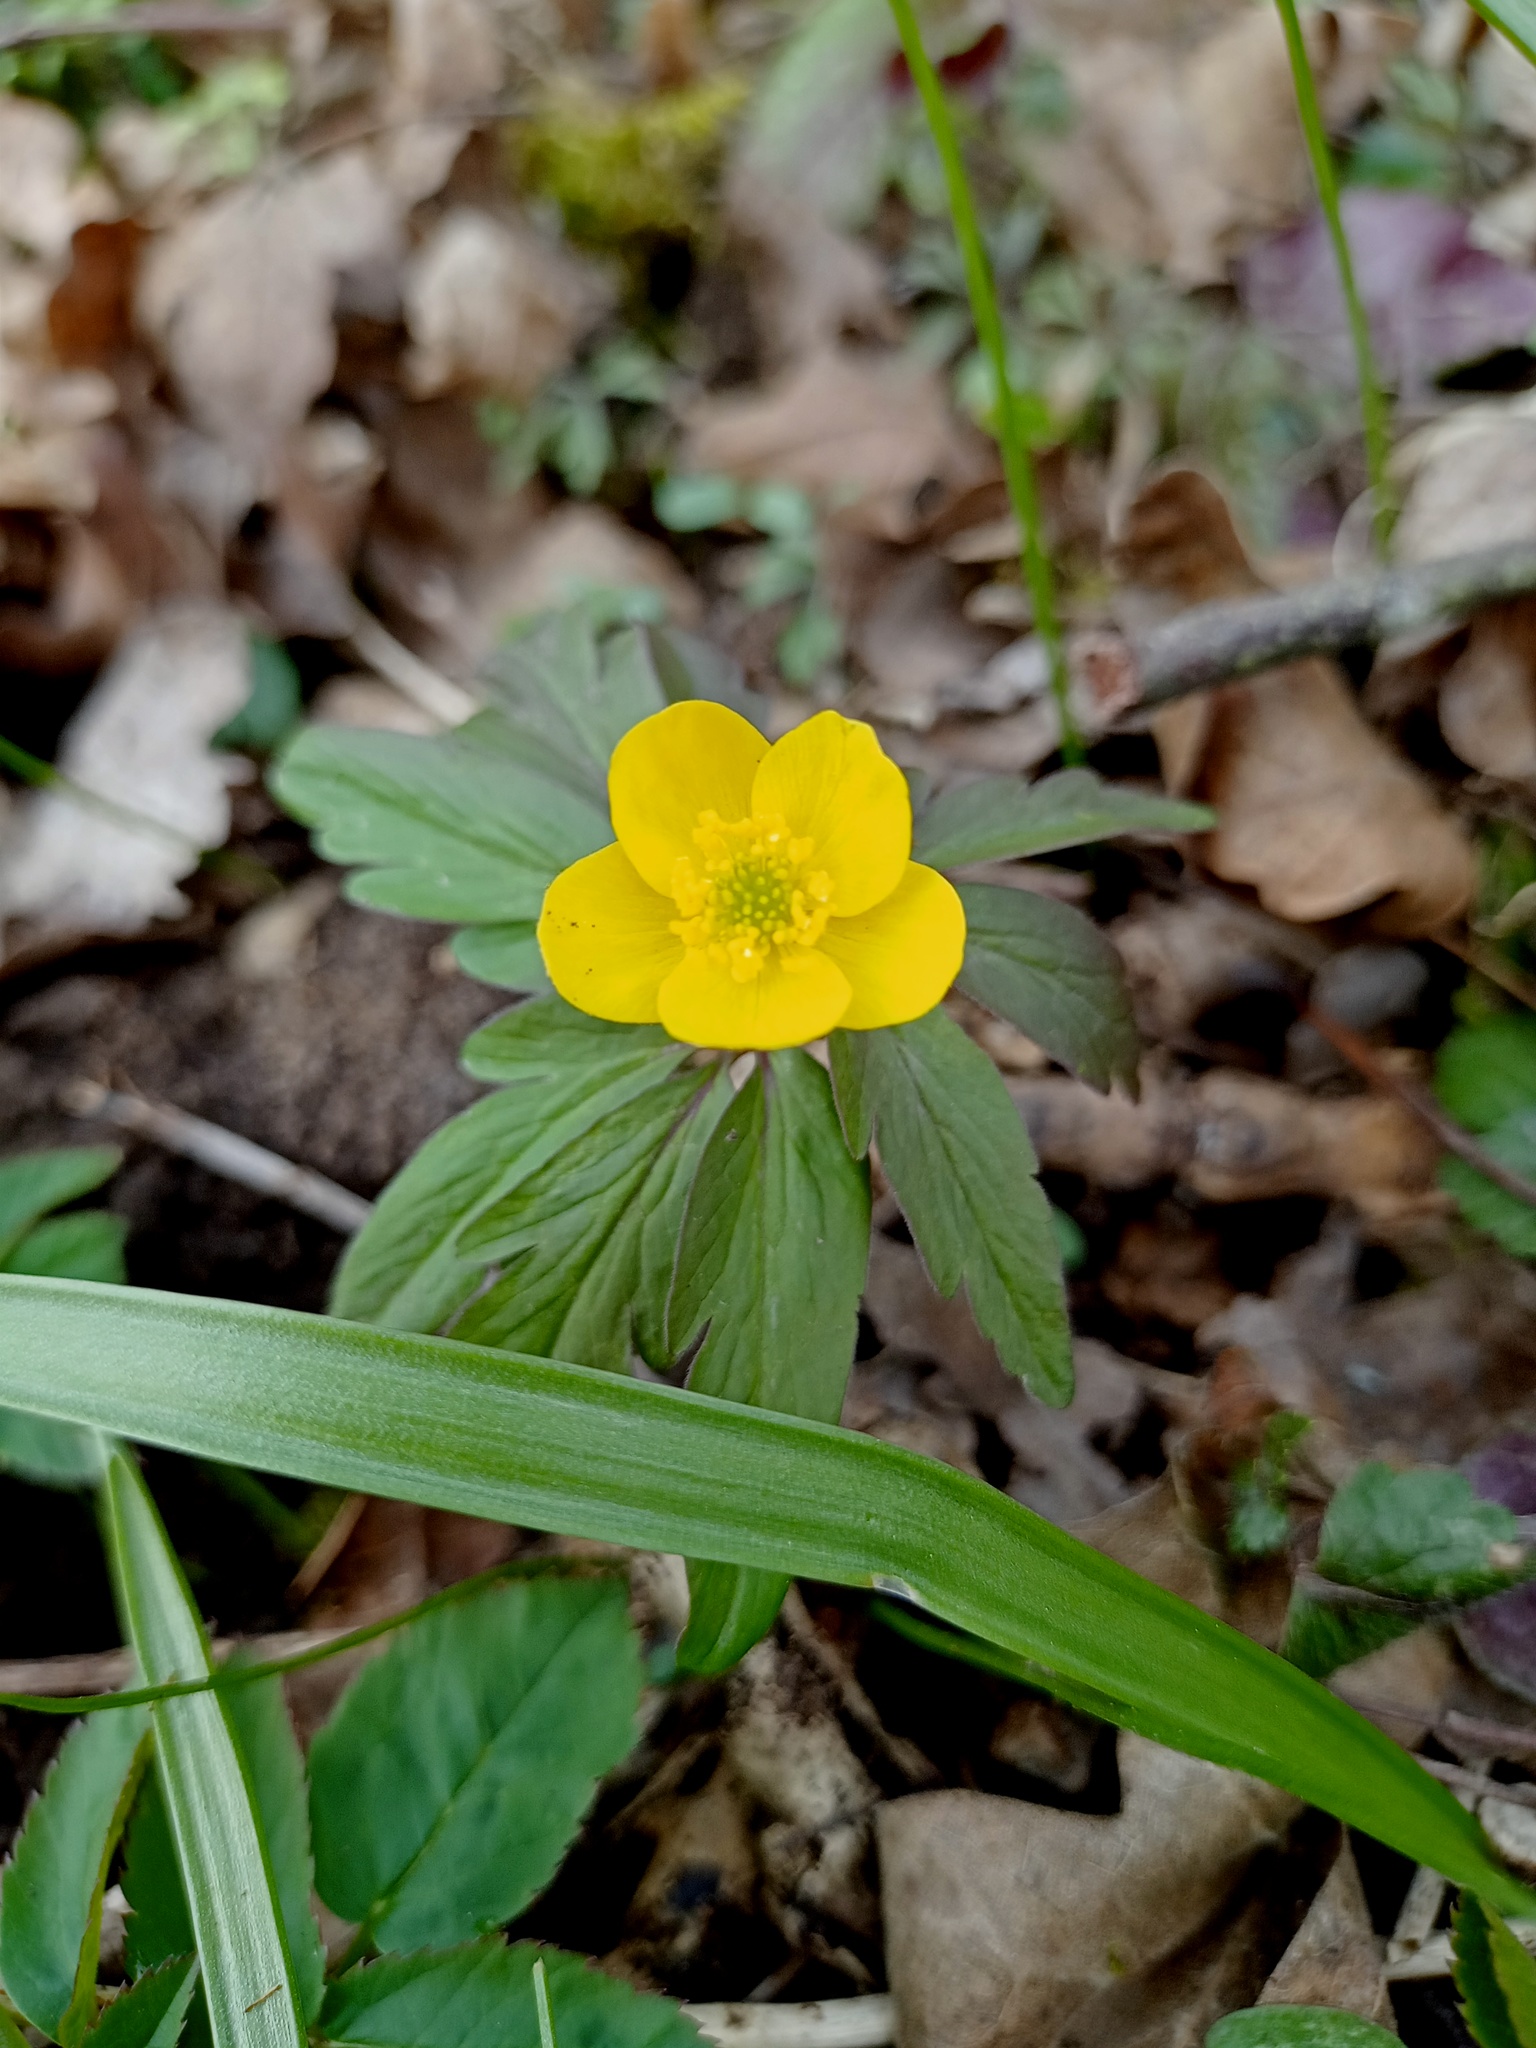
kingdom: Plantae
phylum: Tracheophyta
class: Magnoliopsida
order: Ranunculales
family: Ranunculaceae
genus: Anemone
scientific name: Anemone ranunculoides
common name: Yellow anemone
